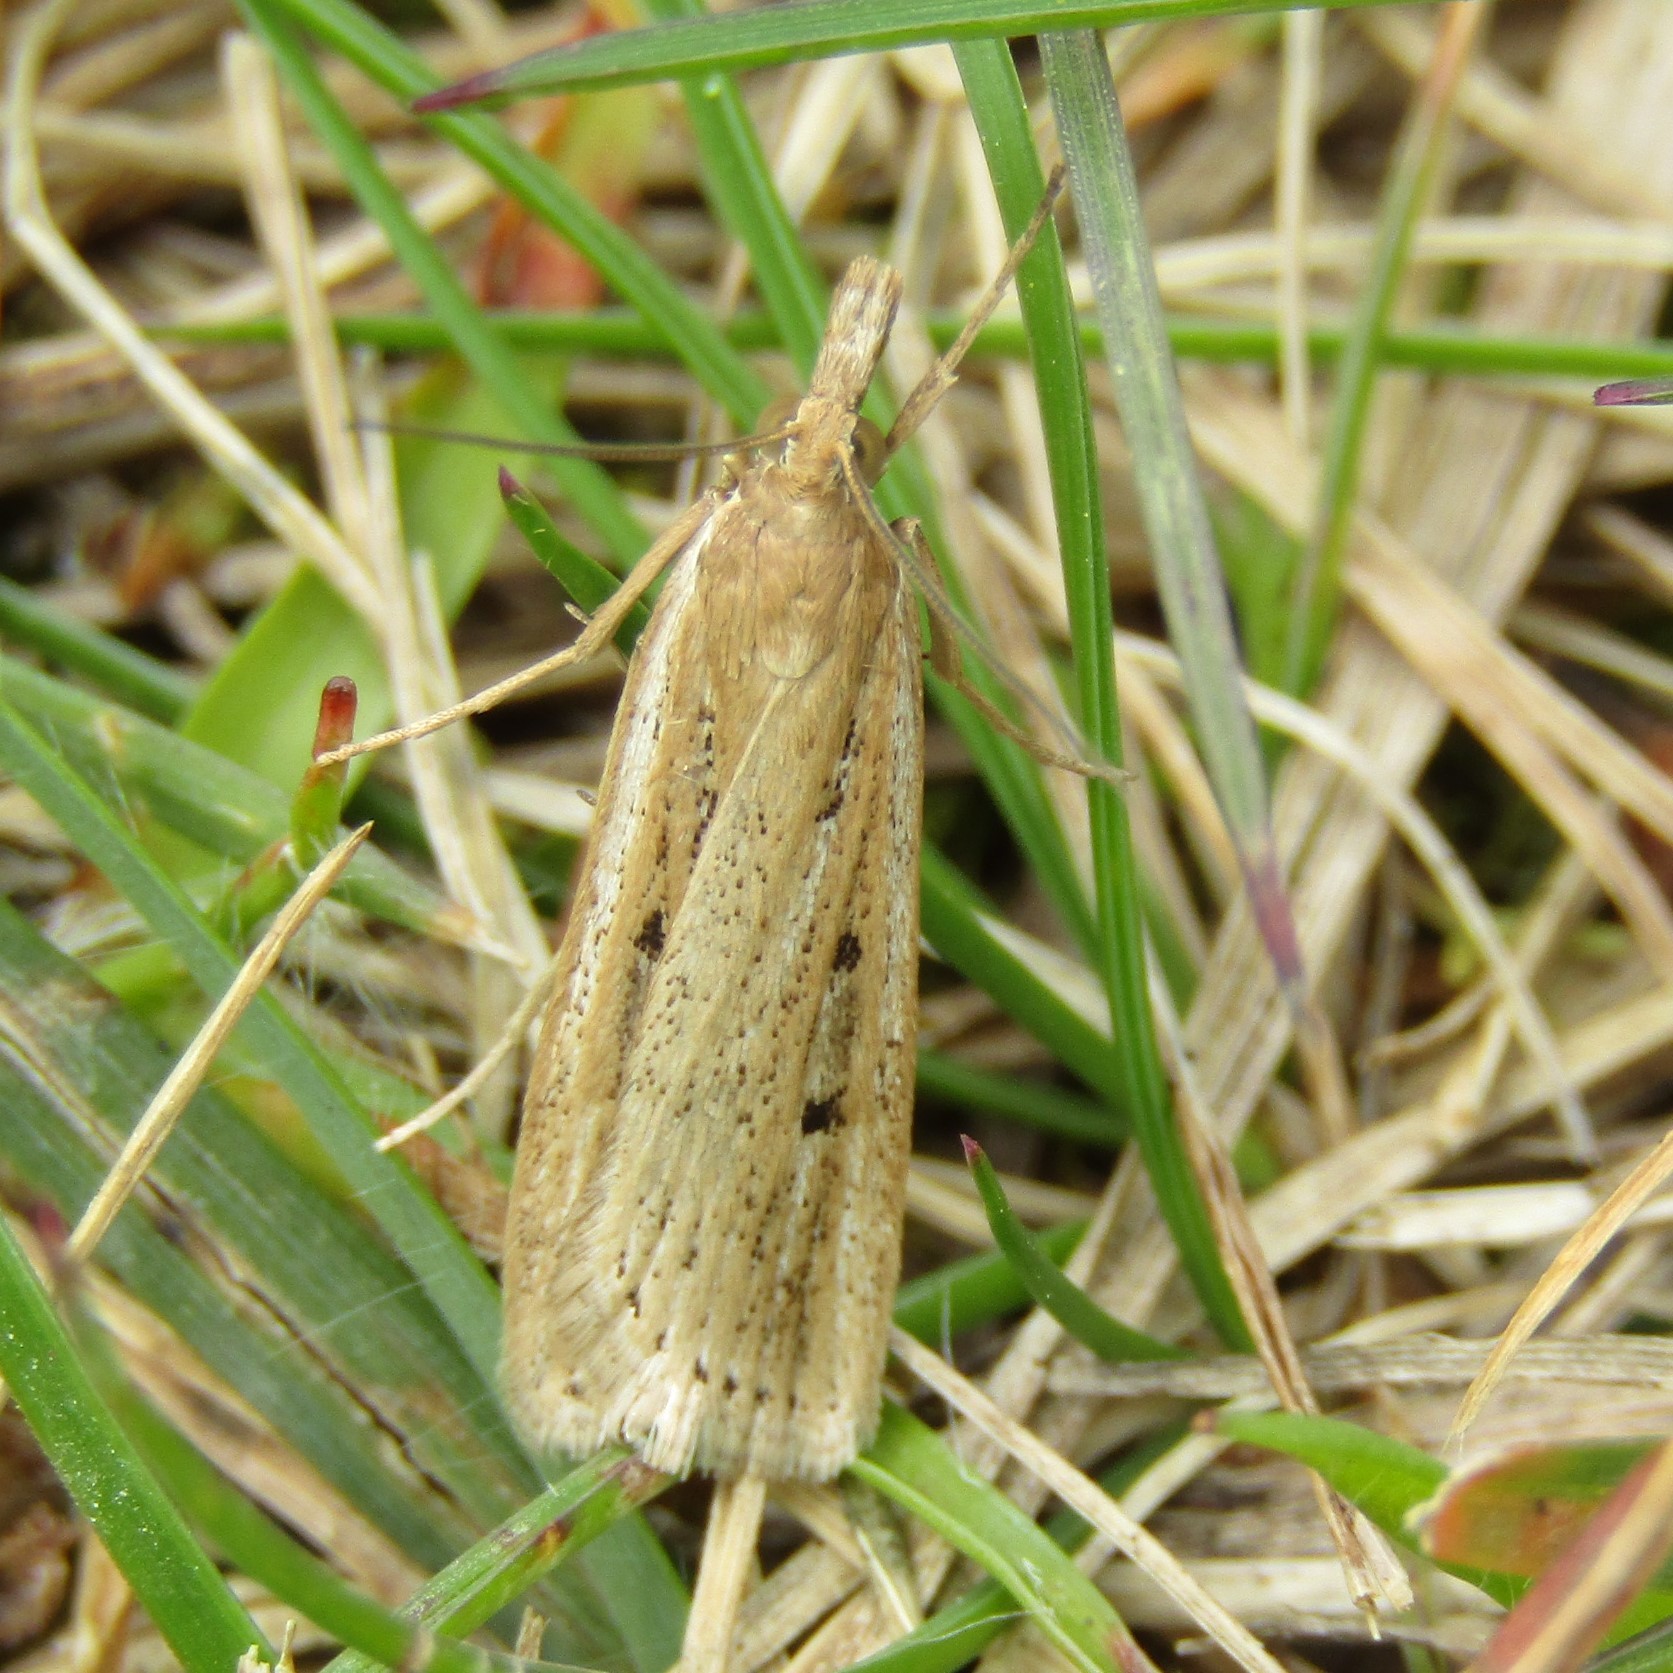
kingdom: Animalia
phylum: Arthropoda
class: Insecta
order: Lepidoptera
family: Crambidae
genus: Eudonia
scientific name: Eudonia sabulosella
